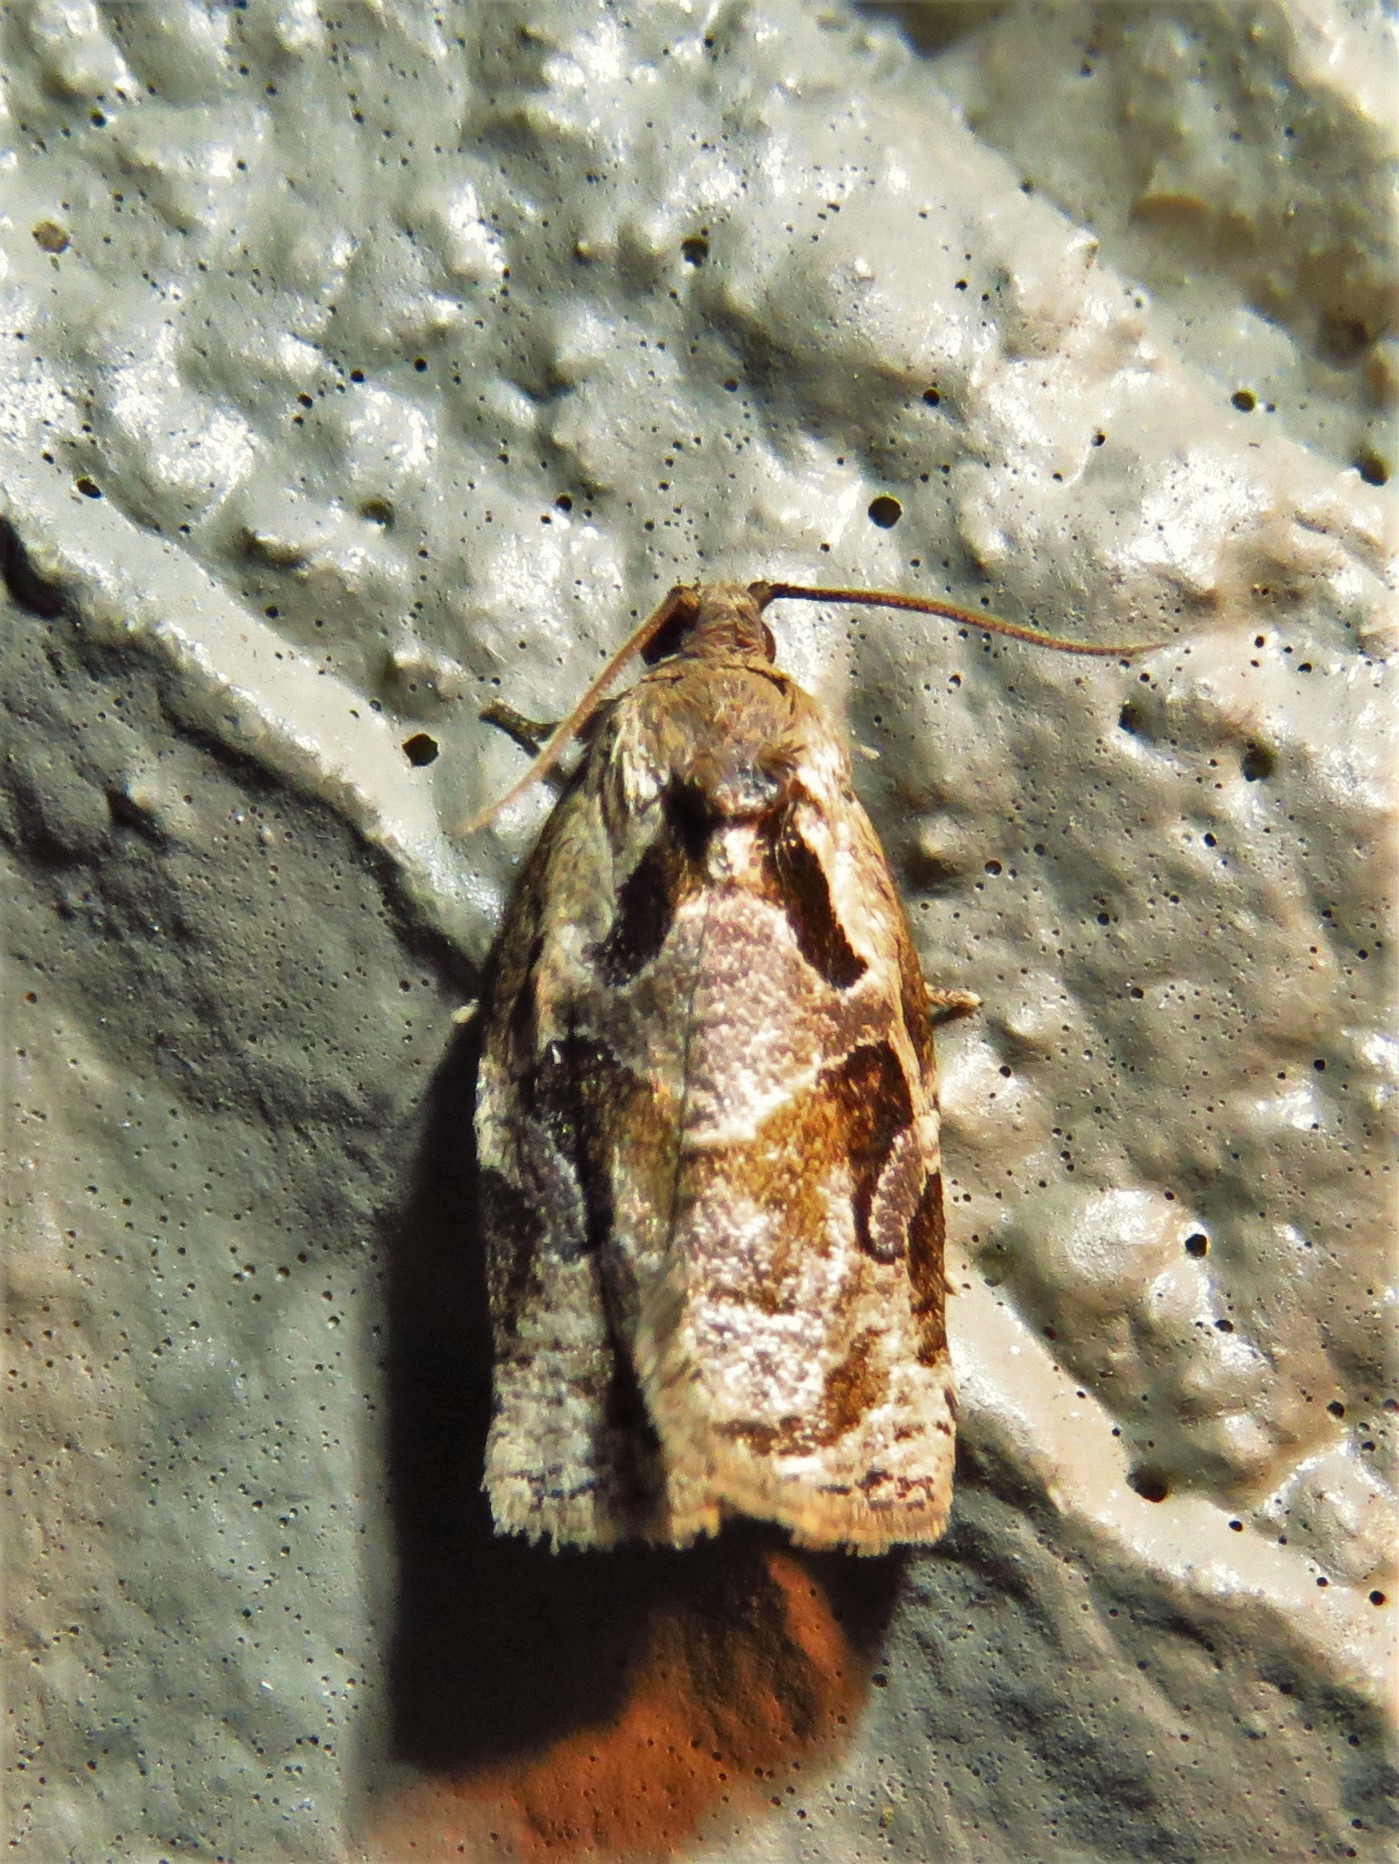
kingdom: Animalia
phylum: Arthropoda
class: Insecta
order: Lepidoptera
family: Tortricidae
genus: Archips
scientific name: Archips grisea
